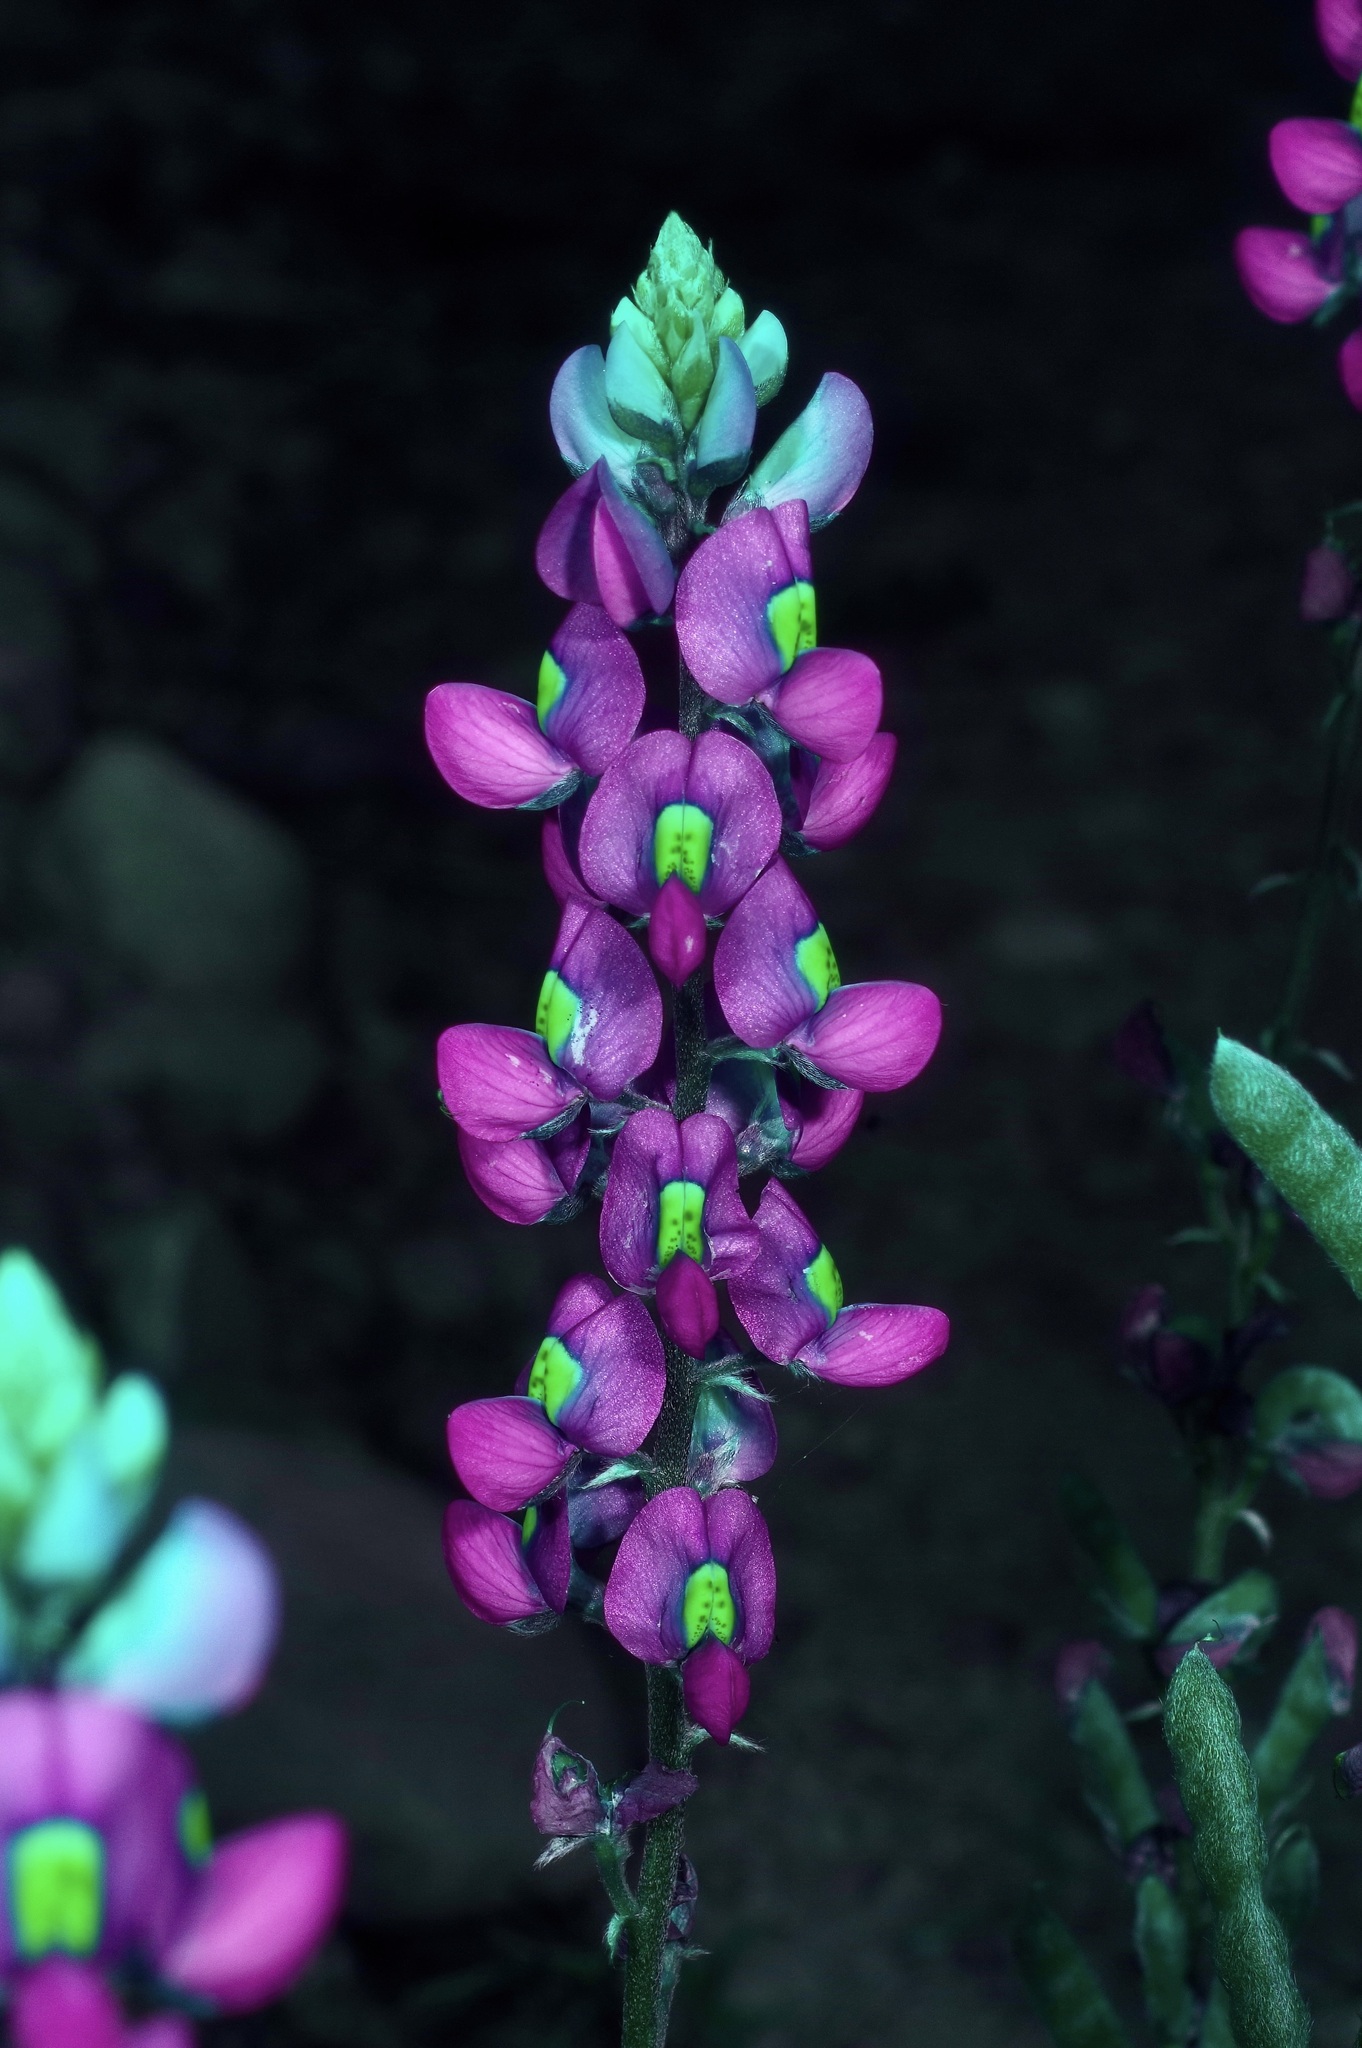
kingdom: Plantae
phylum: Tracheophyta
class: Magnoliopsida
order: Fabales
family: Fabaceae
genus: Lupinus
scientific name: Lupinus havardii
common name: Chisos bluebonnet
